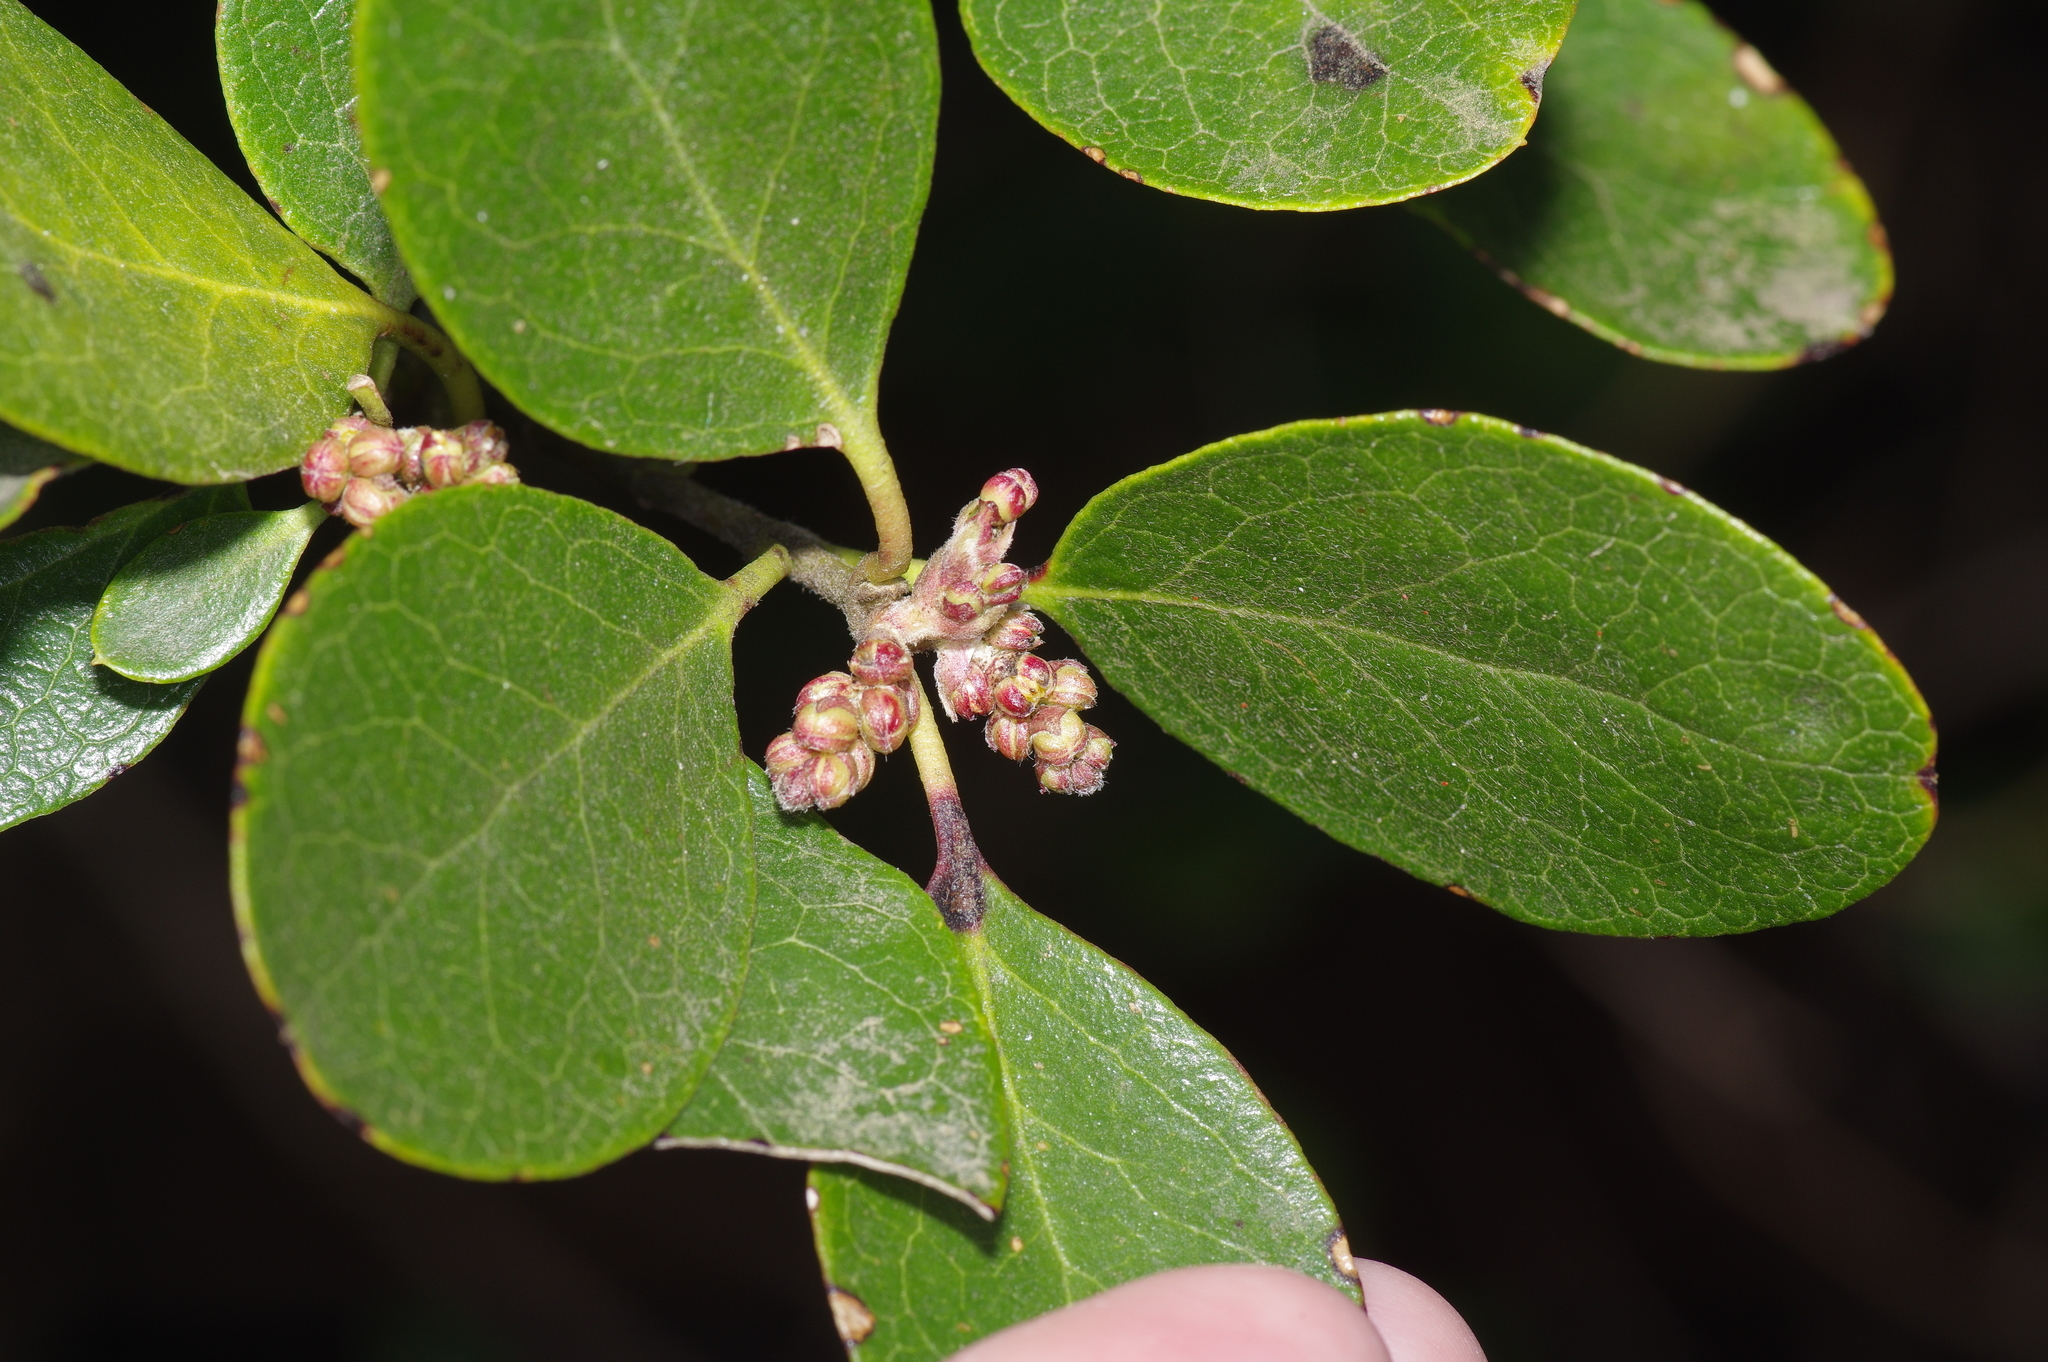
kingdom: Plantae
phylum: Tracheophyta
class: Magnoliopsida
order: Garryales
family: Garryaceae
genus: Garrya
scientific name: Garrya lindheimeri
